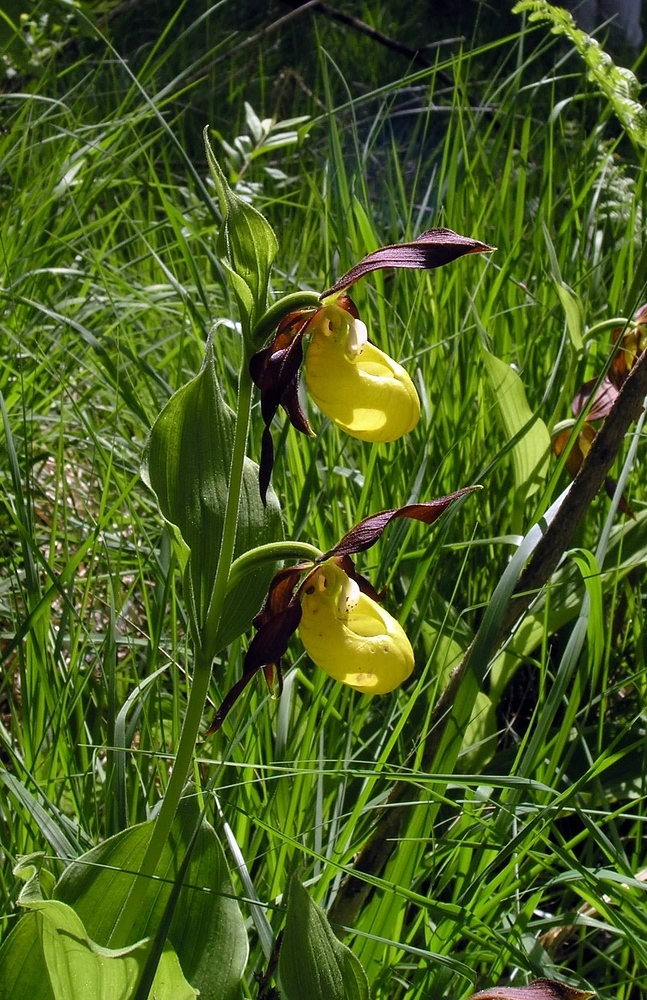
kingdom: Plantae
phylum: Tracheophyta
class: Liliopsida
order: Asparagales
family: Orchidaceae
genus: Cypripedium
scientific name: Cypripedium calceolus
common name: Lady's-slipper
